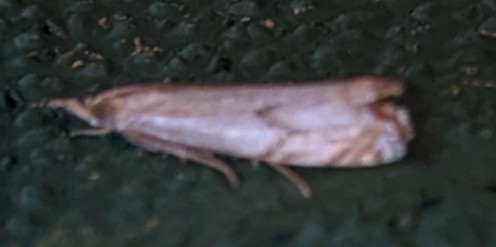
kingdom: Animalia
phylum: Arthropoda
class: Insecta
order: Lepidoptera
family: Crambidae
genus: Crambus
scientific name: Crambus agitatellus
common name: Double-banded grass-veneer
